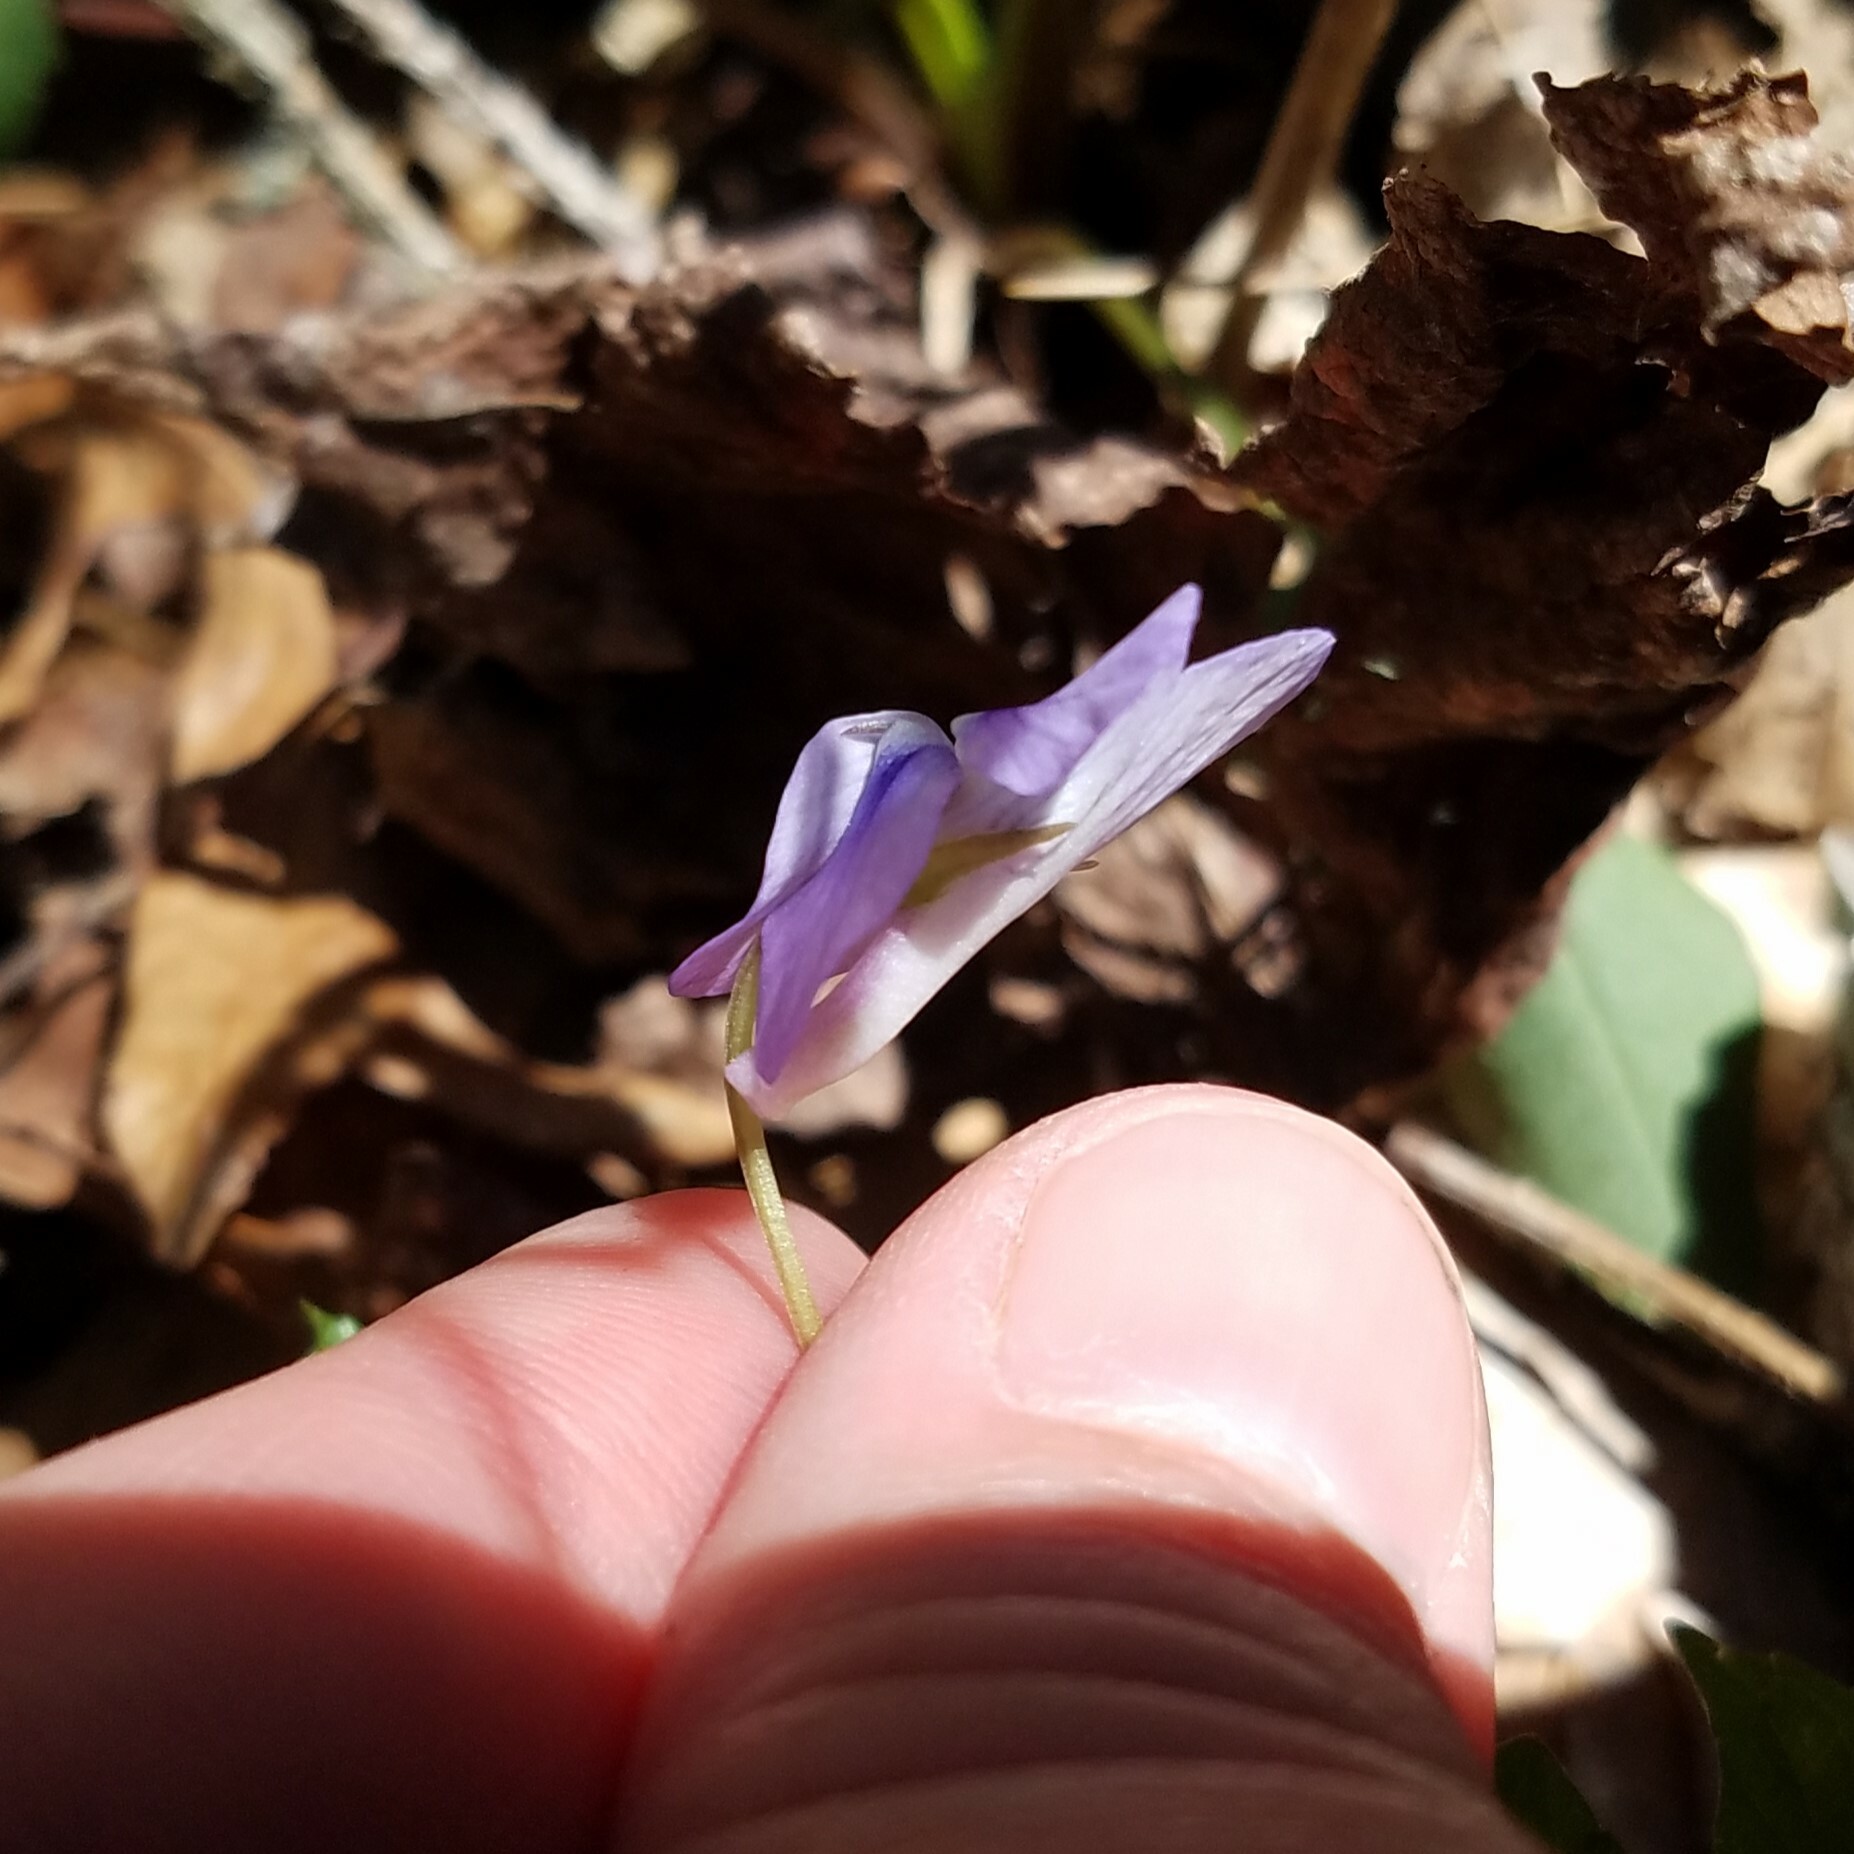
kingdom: Plantae
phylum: Tracheophyta
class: Magnoliopsida
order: Malpighiales
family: Violaceae
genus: Viola
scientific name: Viola rostrata
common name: Long-spur violet
